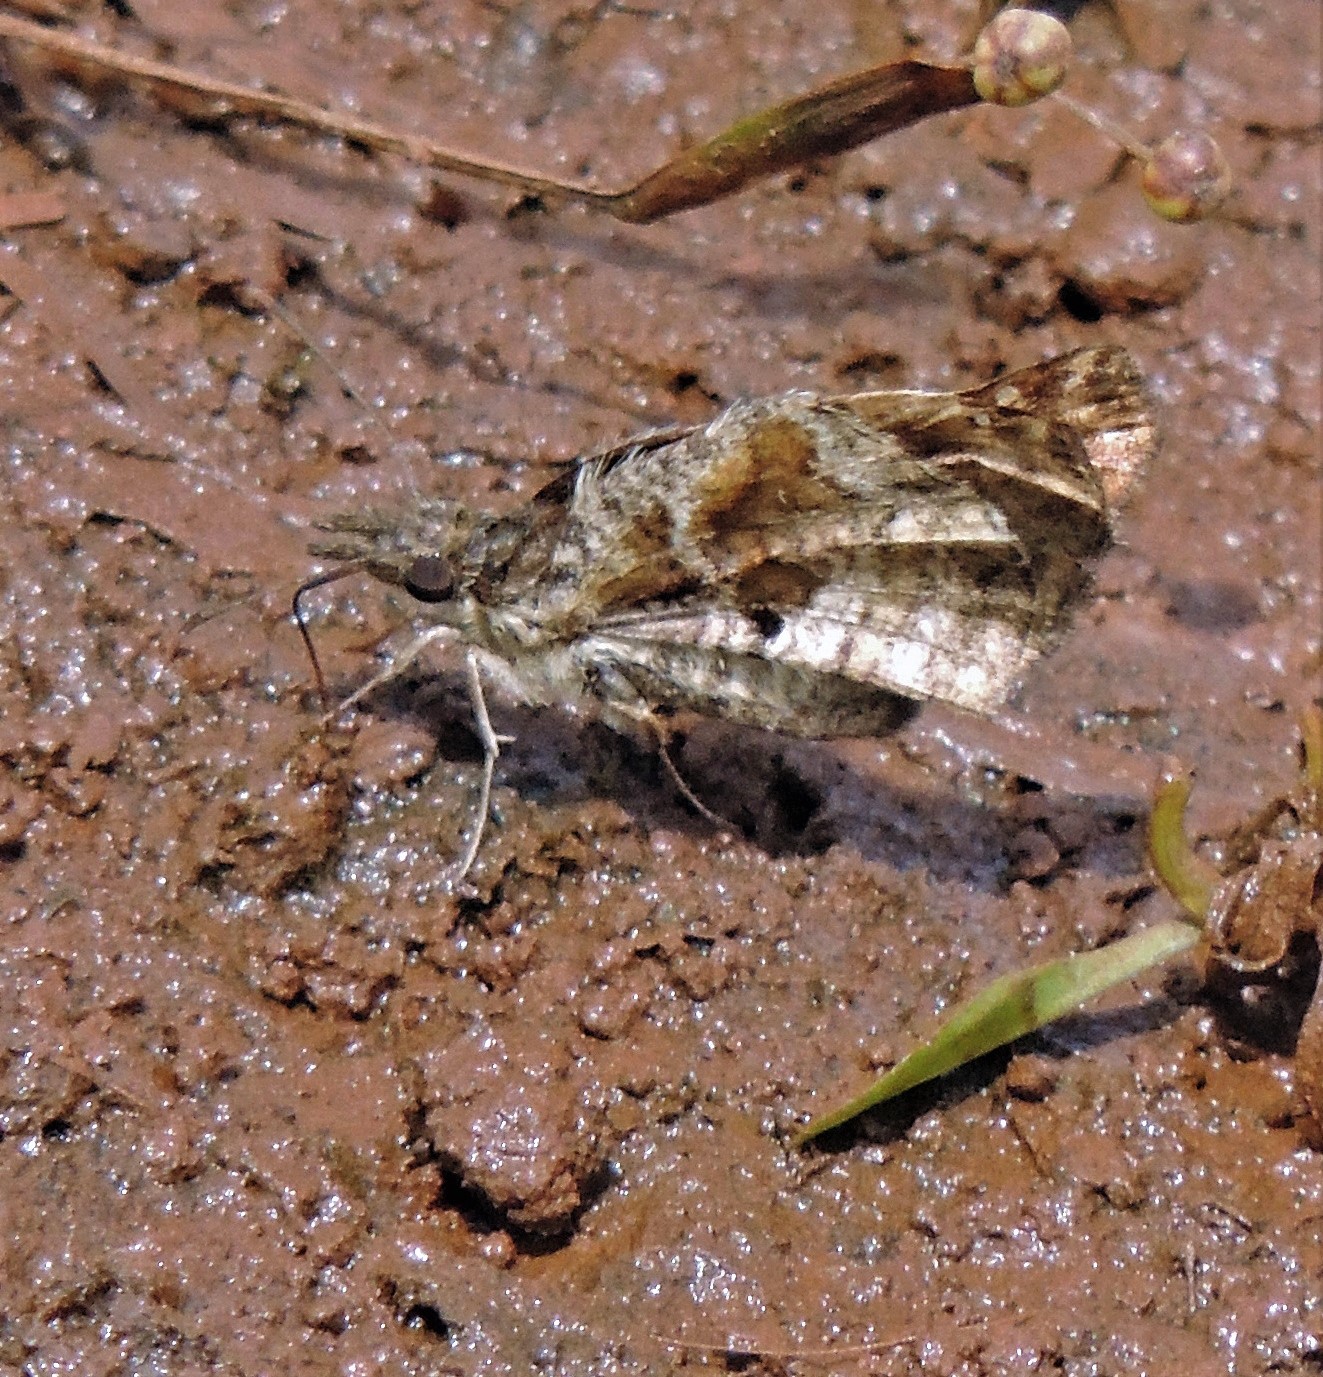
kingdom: Animalia
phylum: Arthropoda
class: Insecta
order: Lepidoptera
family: Hesperiidae
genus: Anisochoria
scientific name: Anisochoria sublimbata
